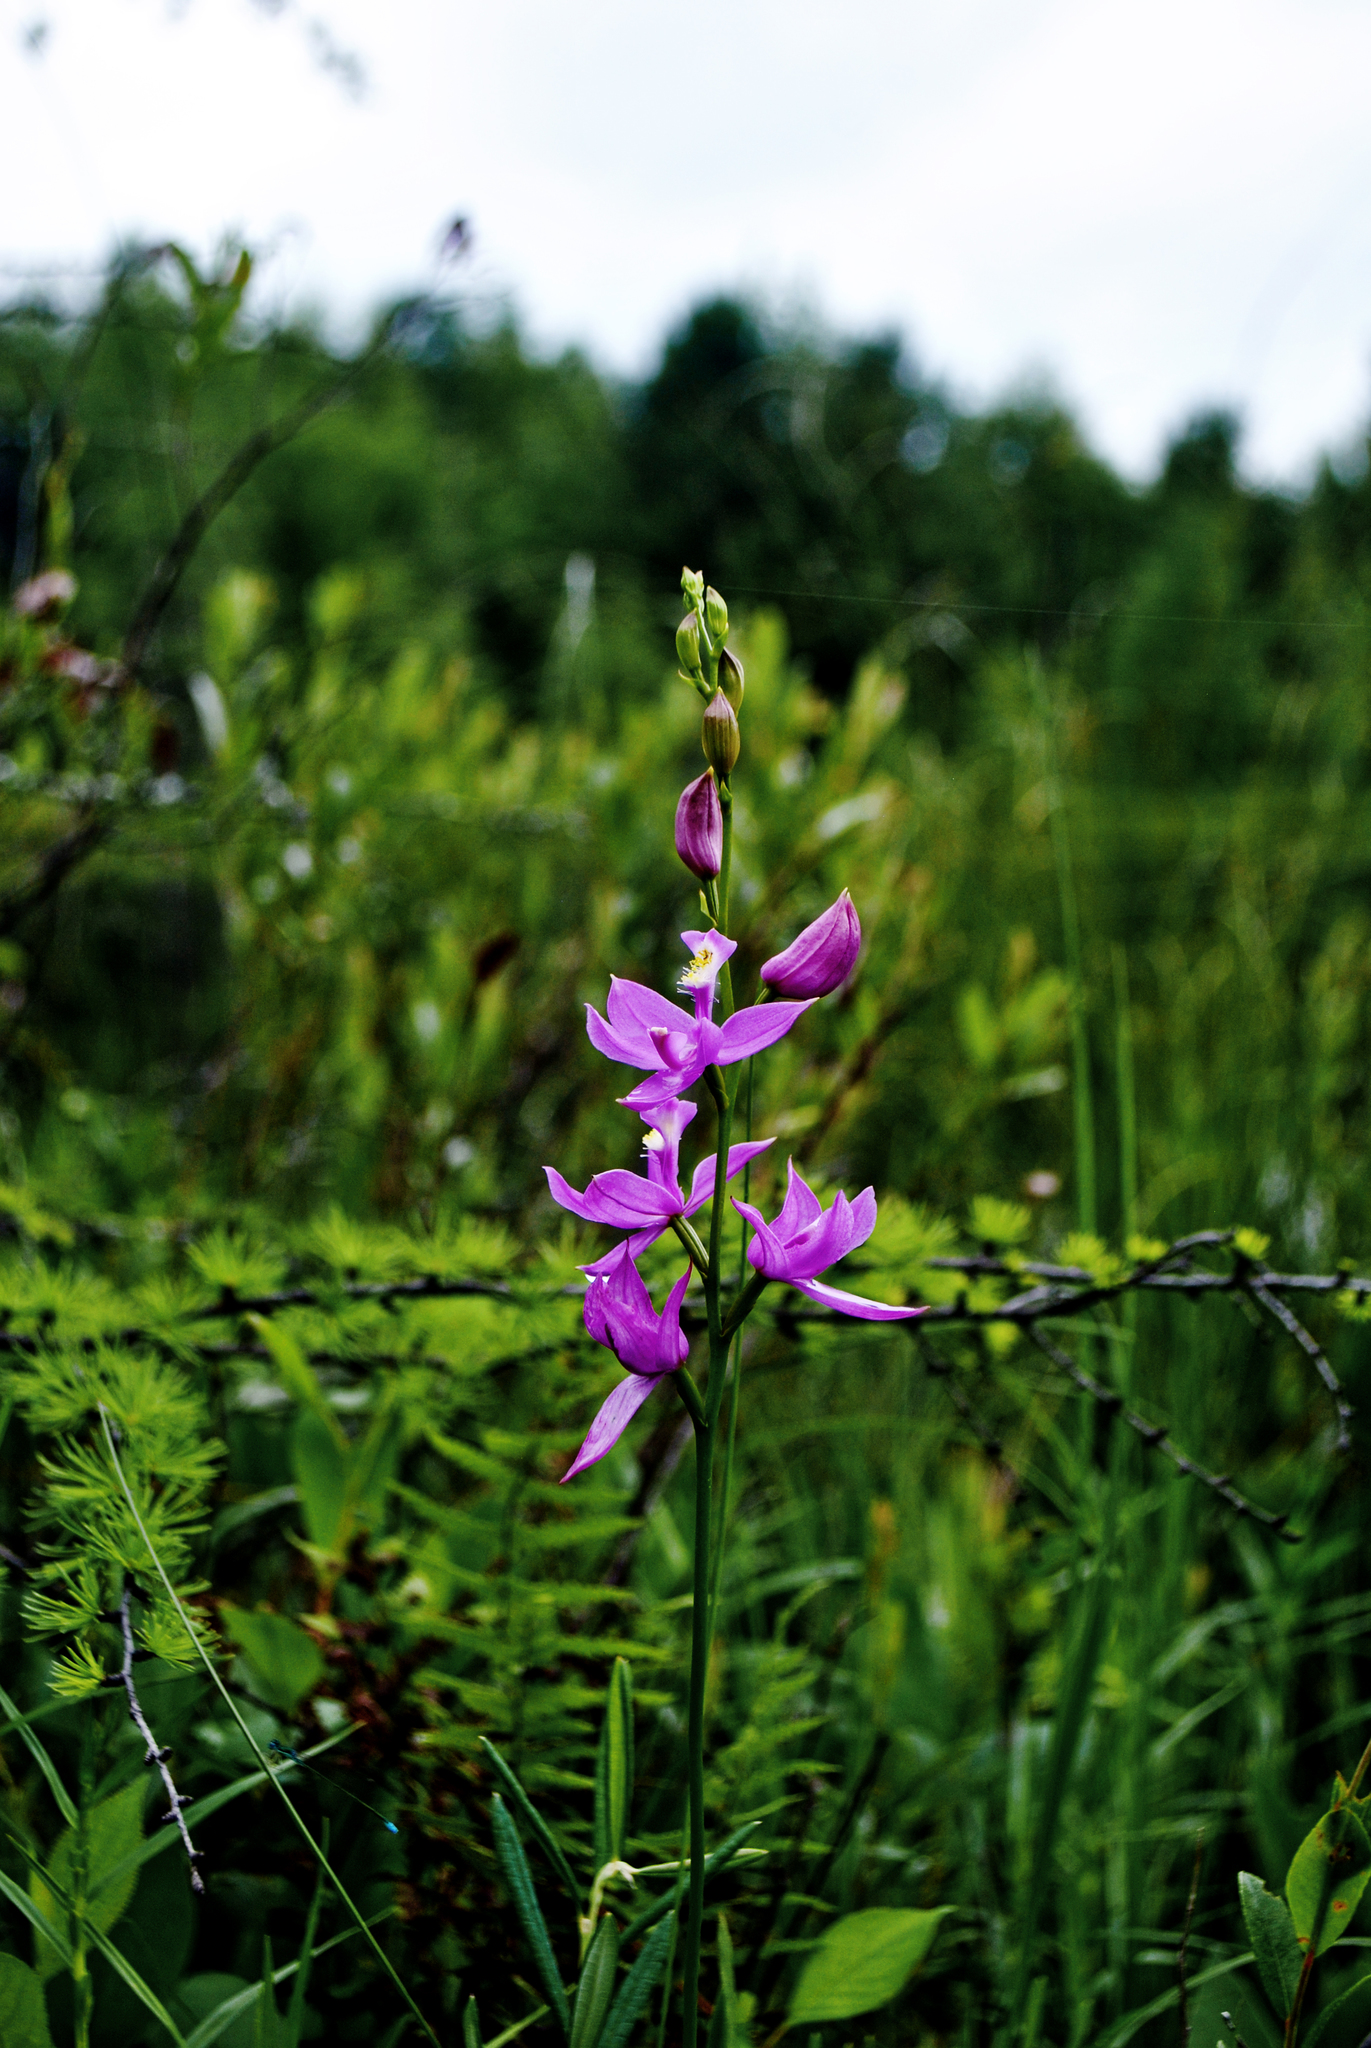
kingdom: Plantae
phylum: Tracheophyta
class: Liliopsida
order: Asparagales
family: Orchidaceae
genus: Calopogon
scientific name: Calopogon tuberosus
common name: Grass-pink
